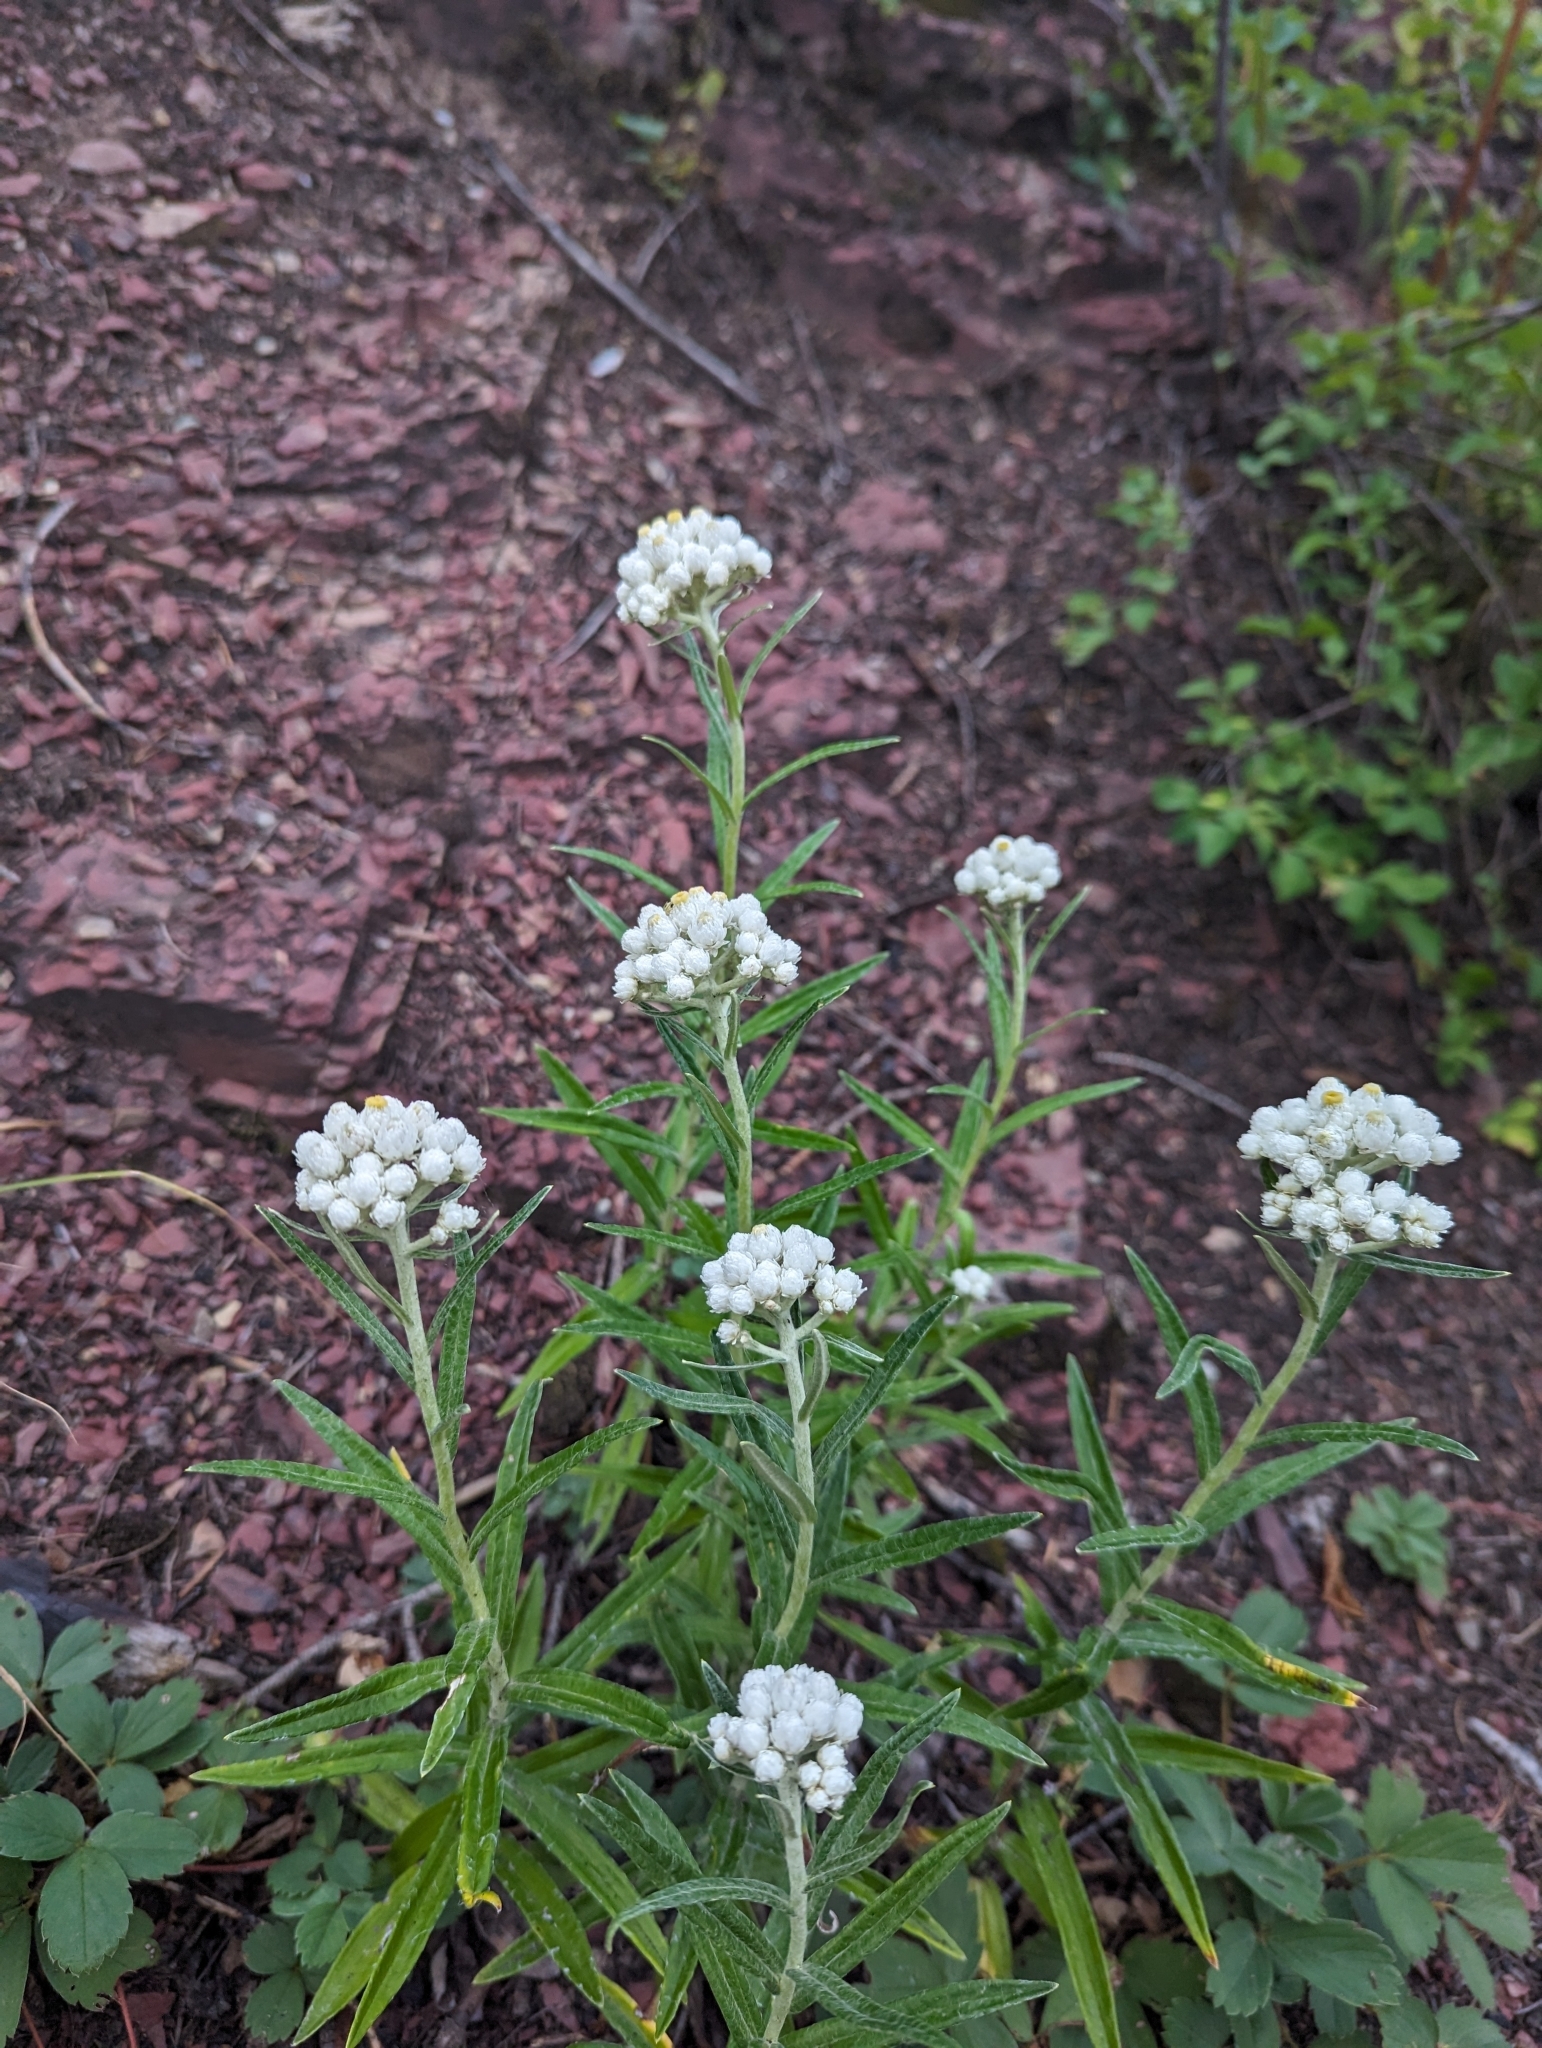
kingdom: Plantae
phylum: Tracheophyta
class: Magnoliopsida
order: Asterales
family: Asteraceae
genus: Anaphalis
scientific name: Anaphalis margaritacea
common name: Pearly everlasting
